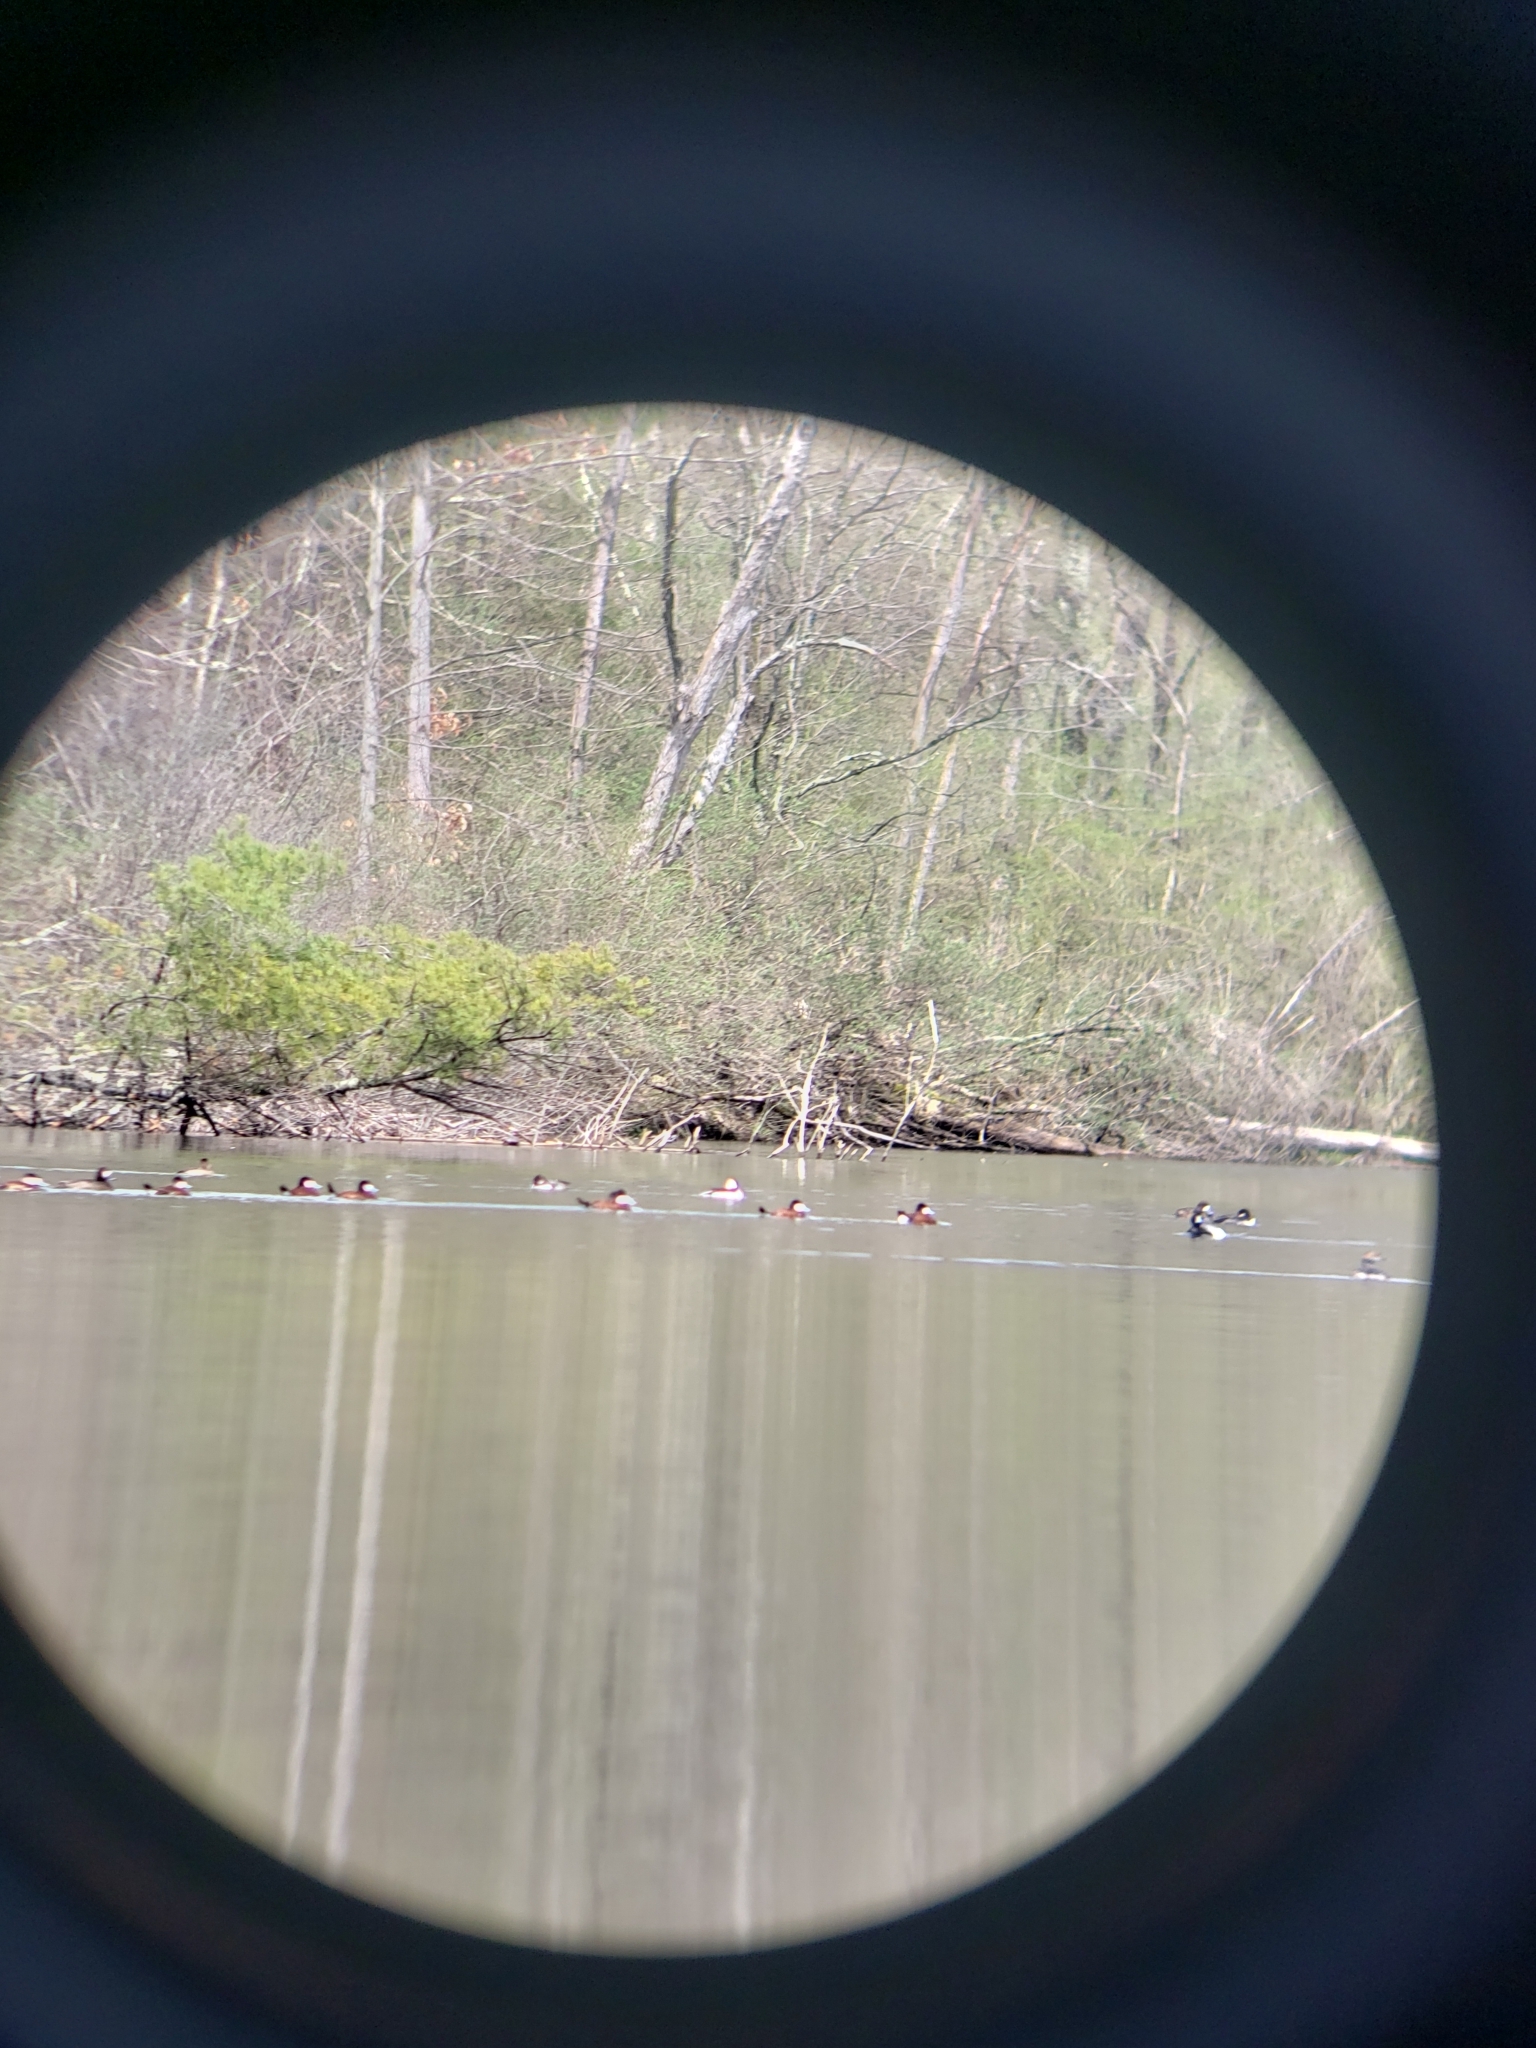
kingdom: Animalia
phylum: Chordata
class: Aves
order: Anseriformes
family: Anatidae
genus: Oxyura
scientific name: Oxyura jamaicensis
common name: Ruddy duck
